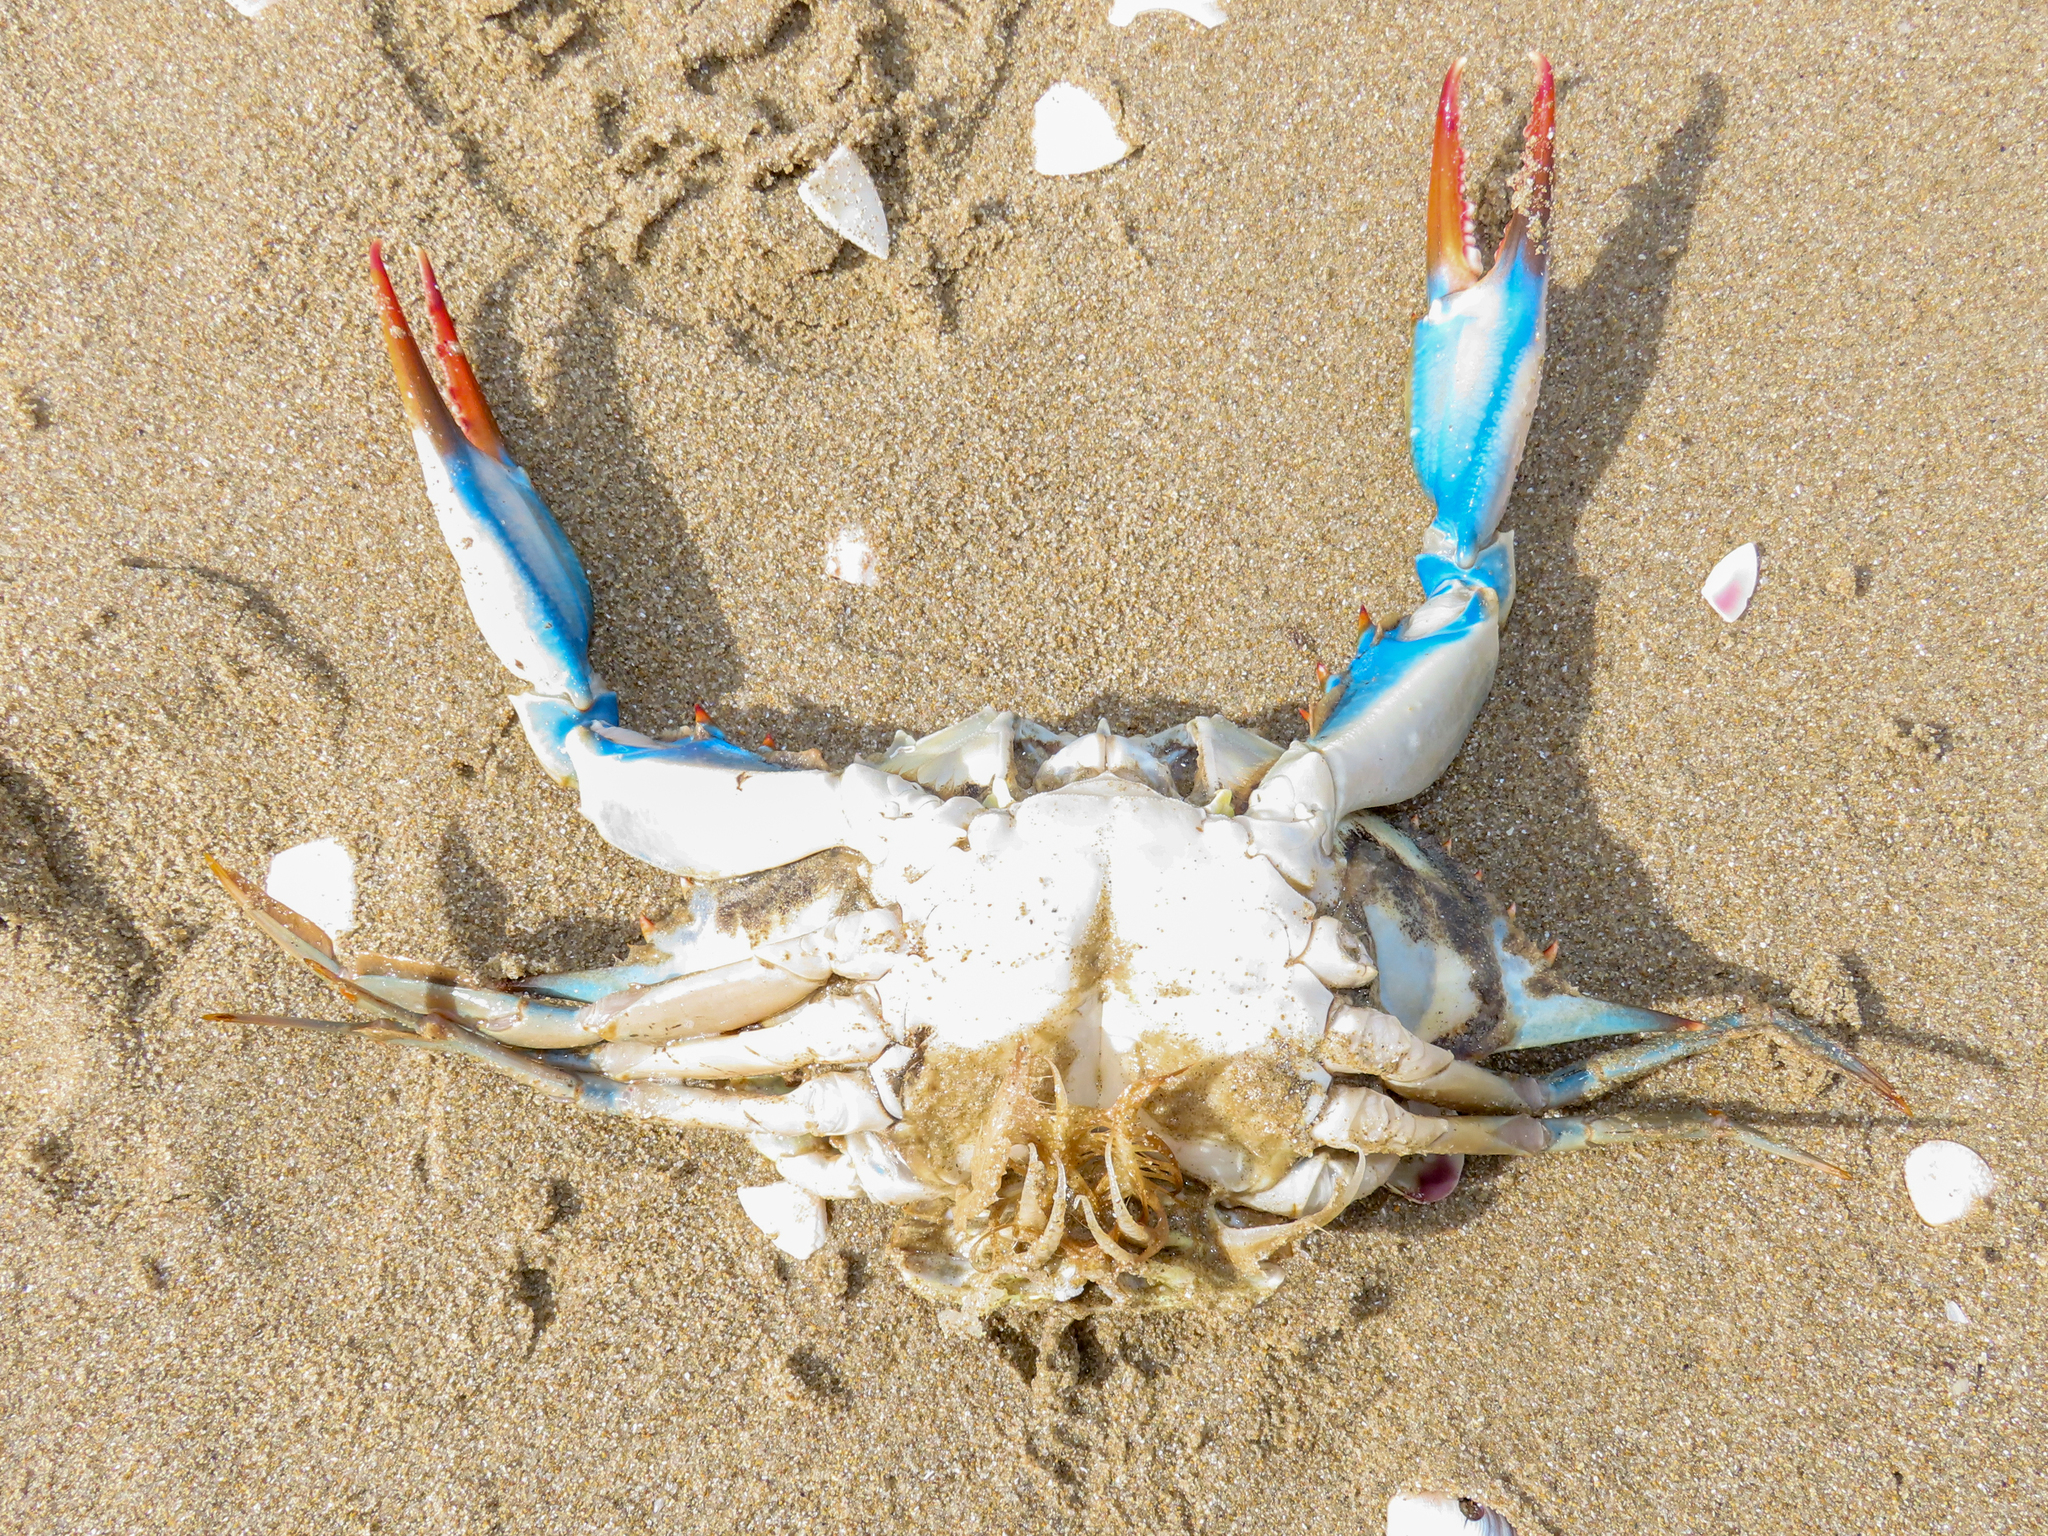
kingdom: Animalia
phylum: Arthropoda
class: Malacostraca
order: Decapoda
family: Portunidae
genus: Callinectes
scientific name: Callinectes sapidus
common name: Blue crab
